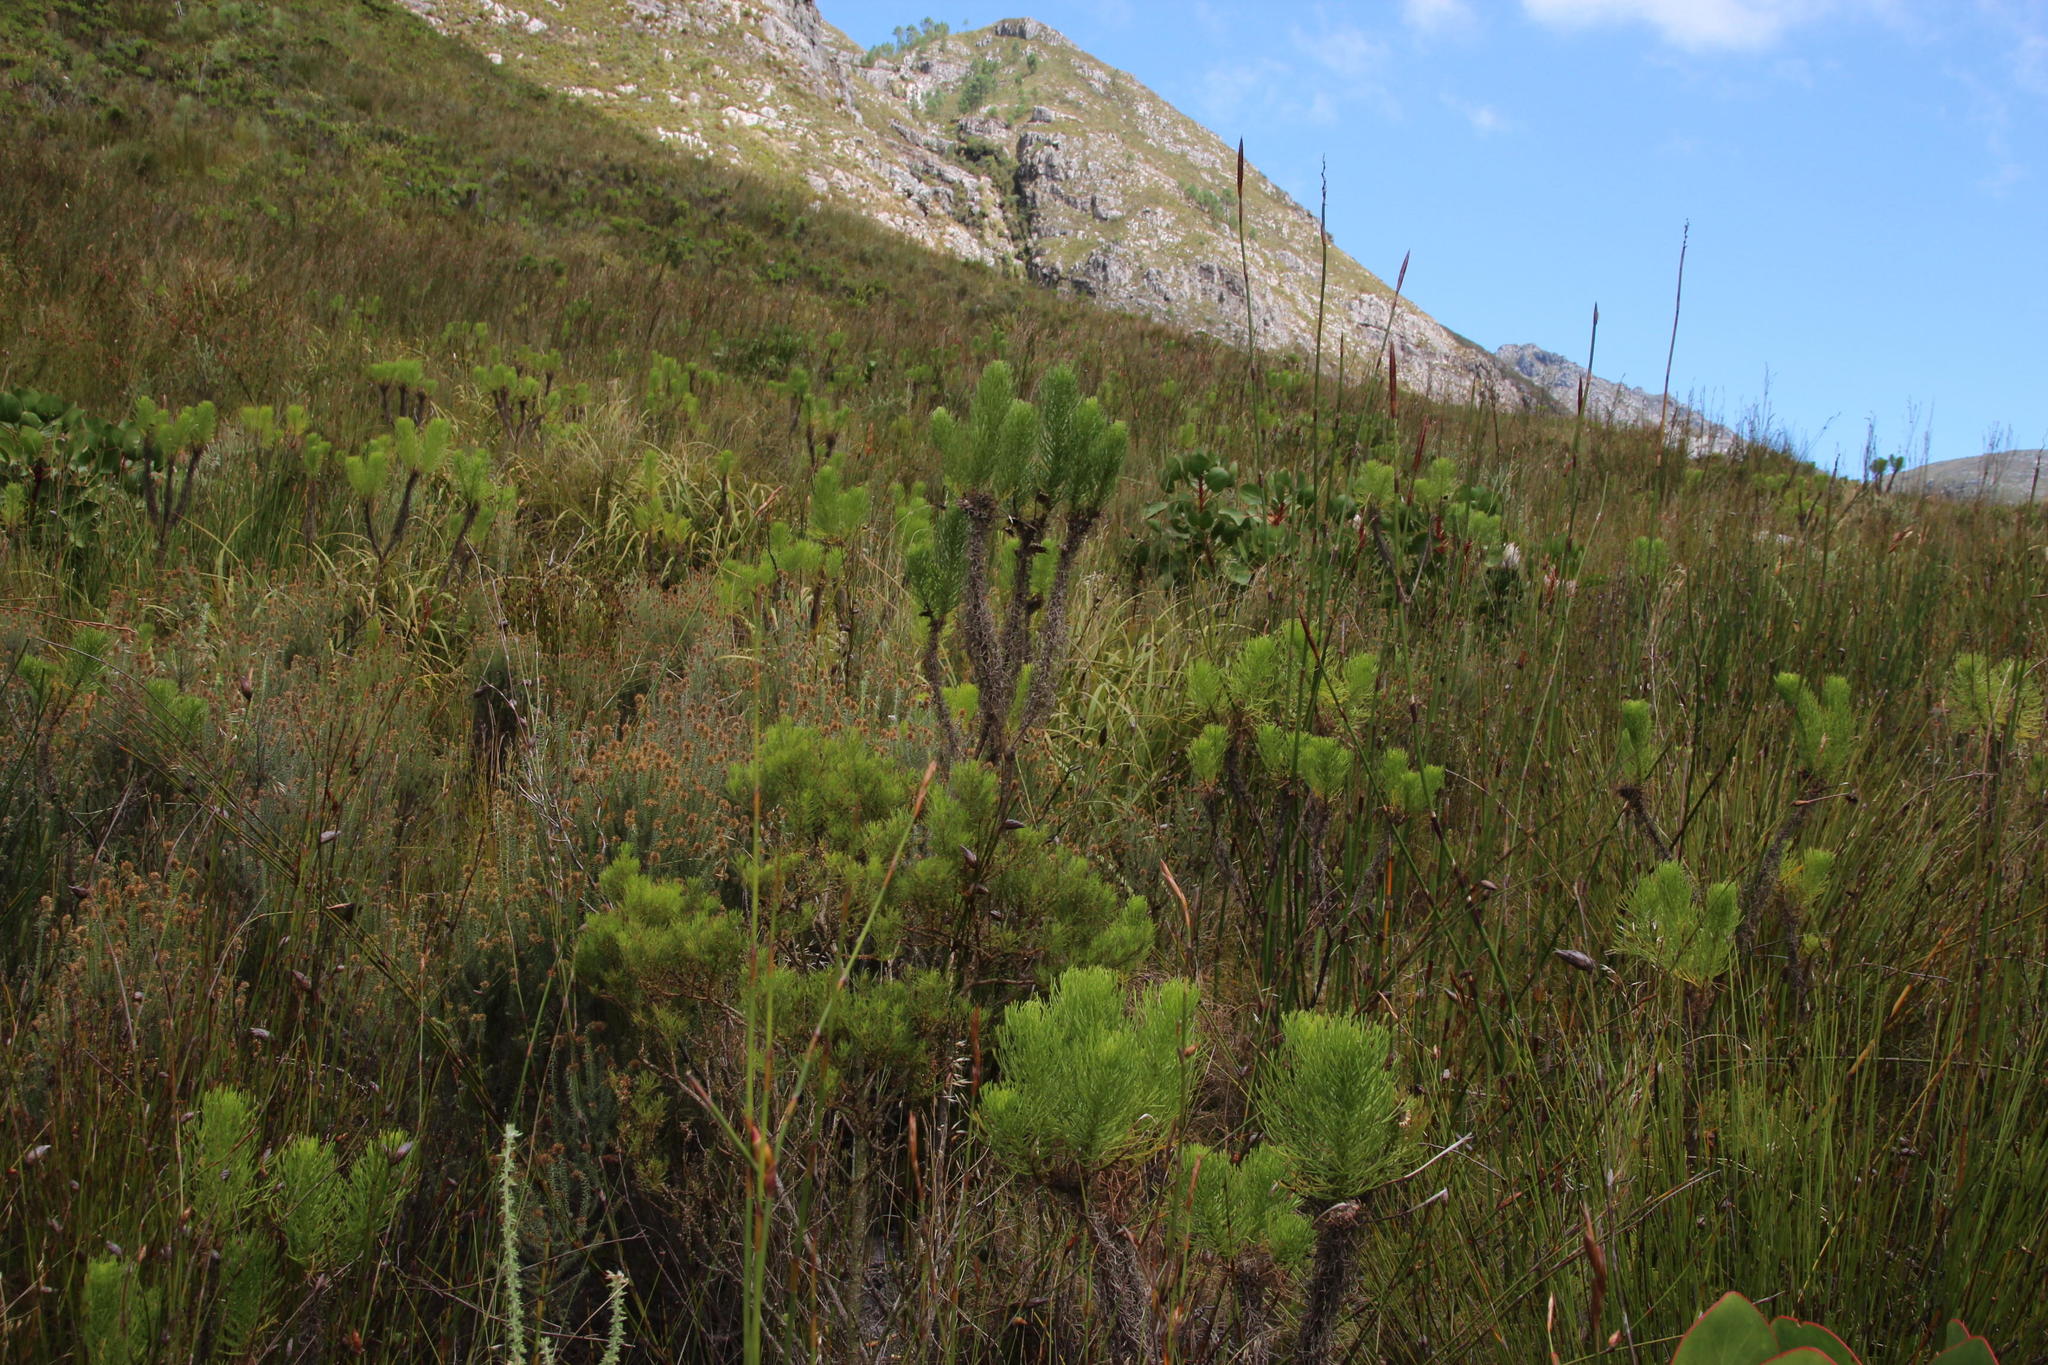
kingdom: Plantae
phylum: Tracheophyta
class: Magnoliopsida
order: Asterales
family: Asteraceae
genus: Euryops
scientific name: Euryops abrotanifolius
